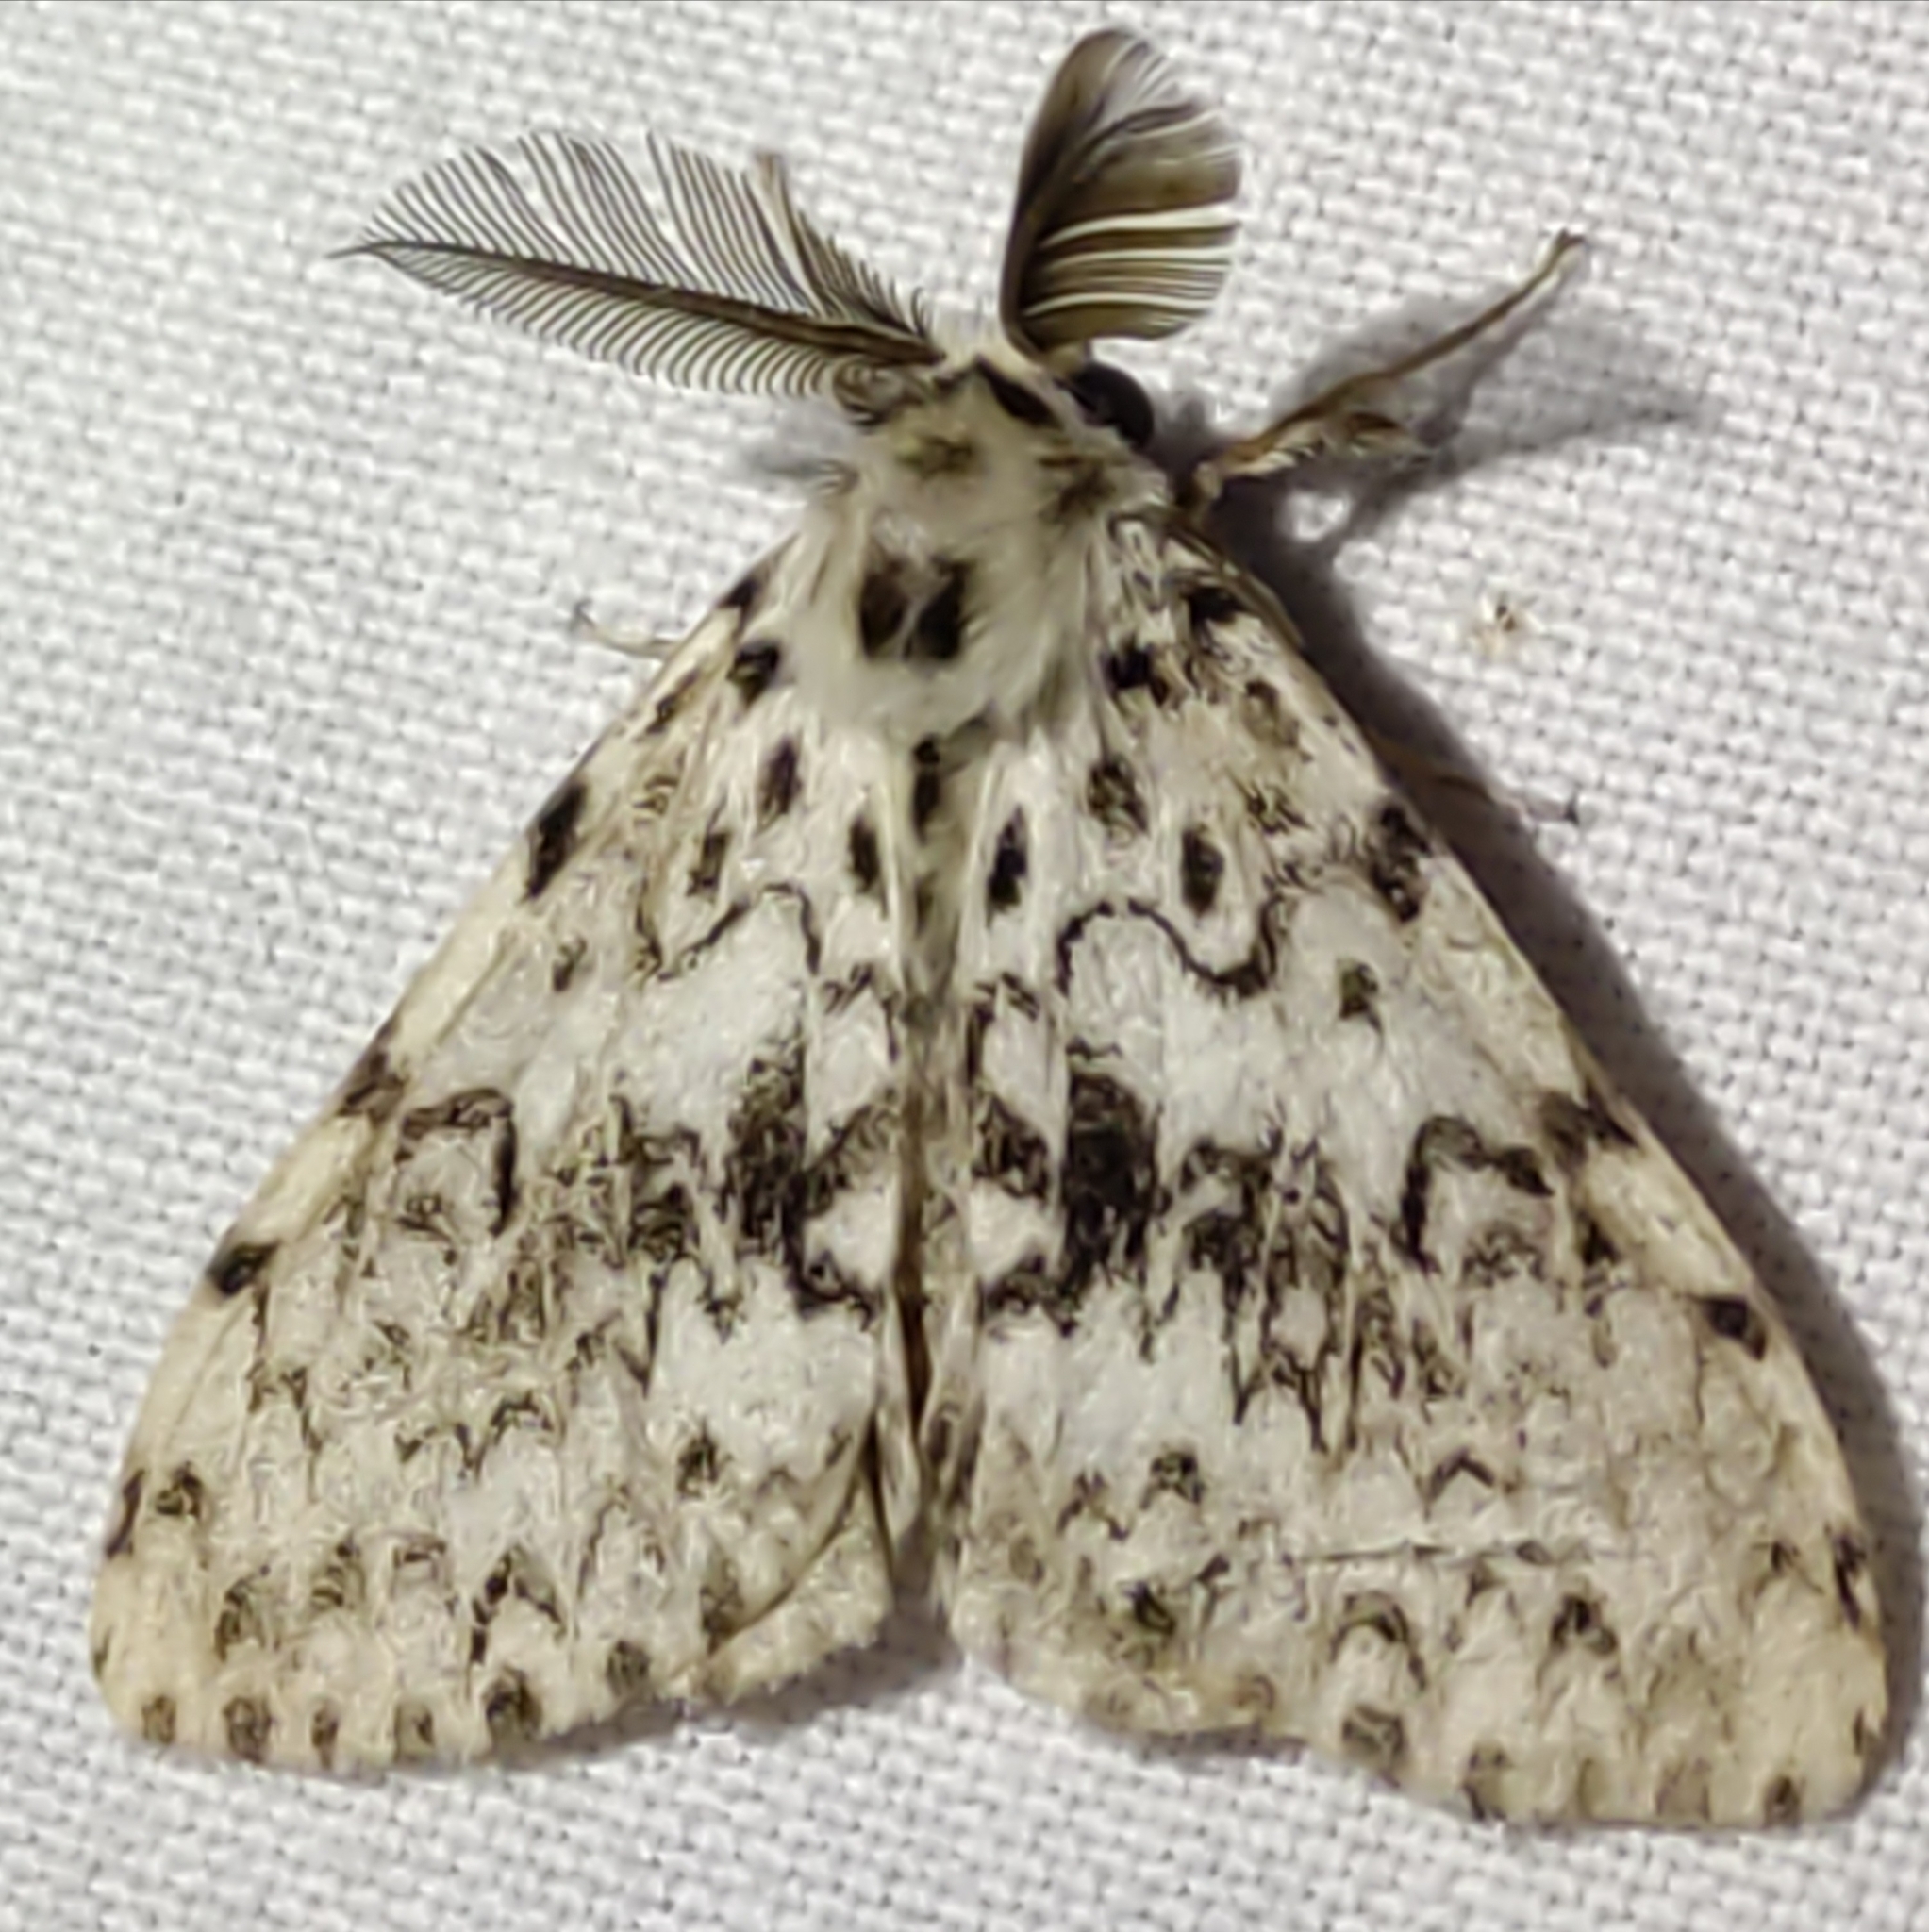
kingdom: Animalia
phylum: Arthropoda
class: Insecta
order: Lepidoptera
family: Erebidae
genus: Lymantria
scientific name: Lymantria monacha
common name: Black arches
